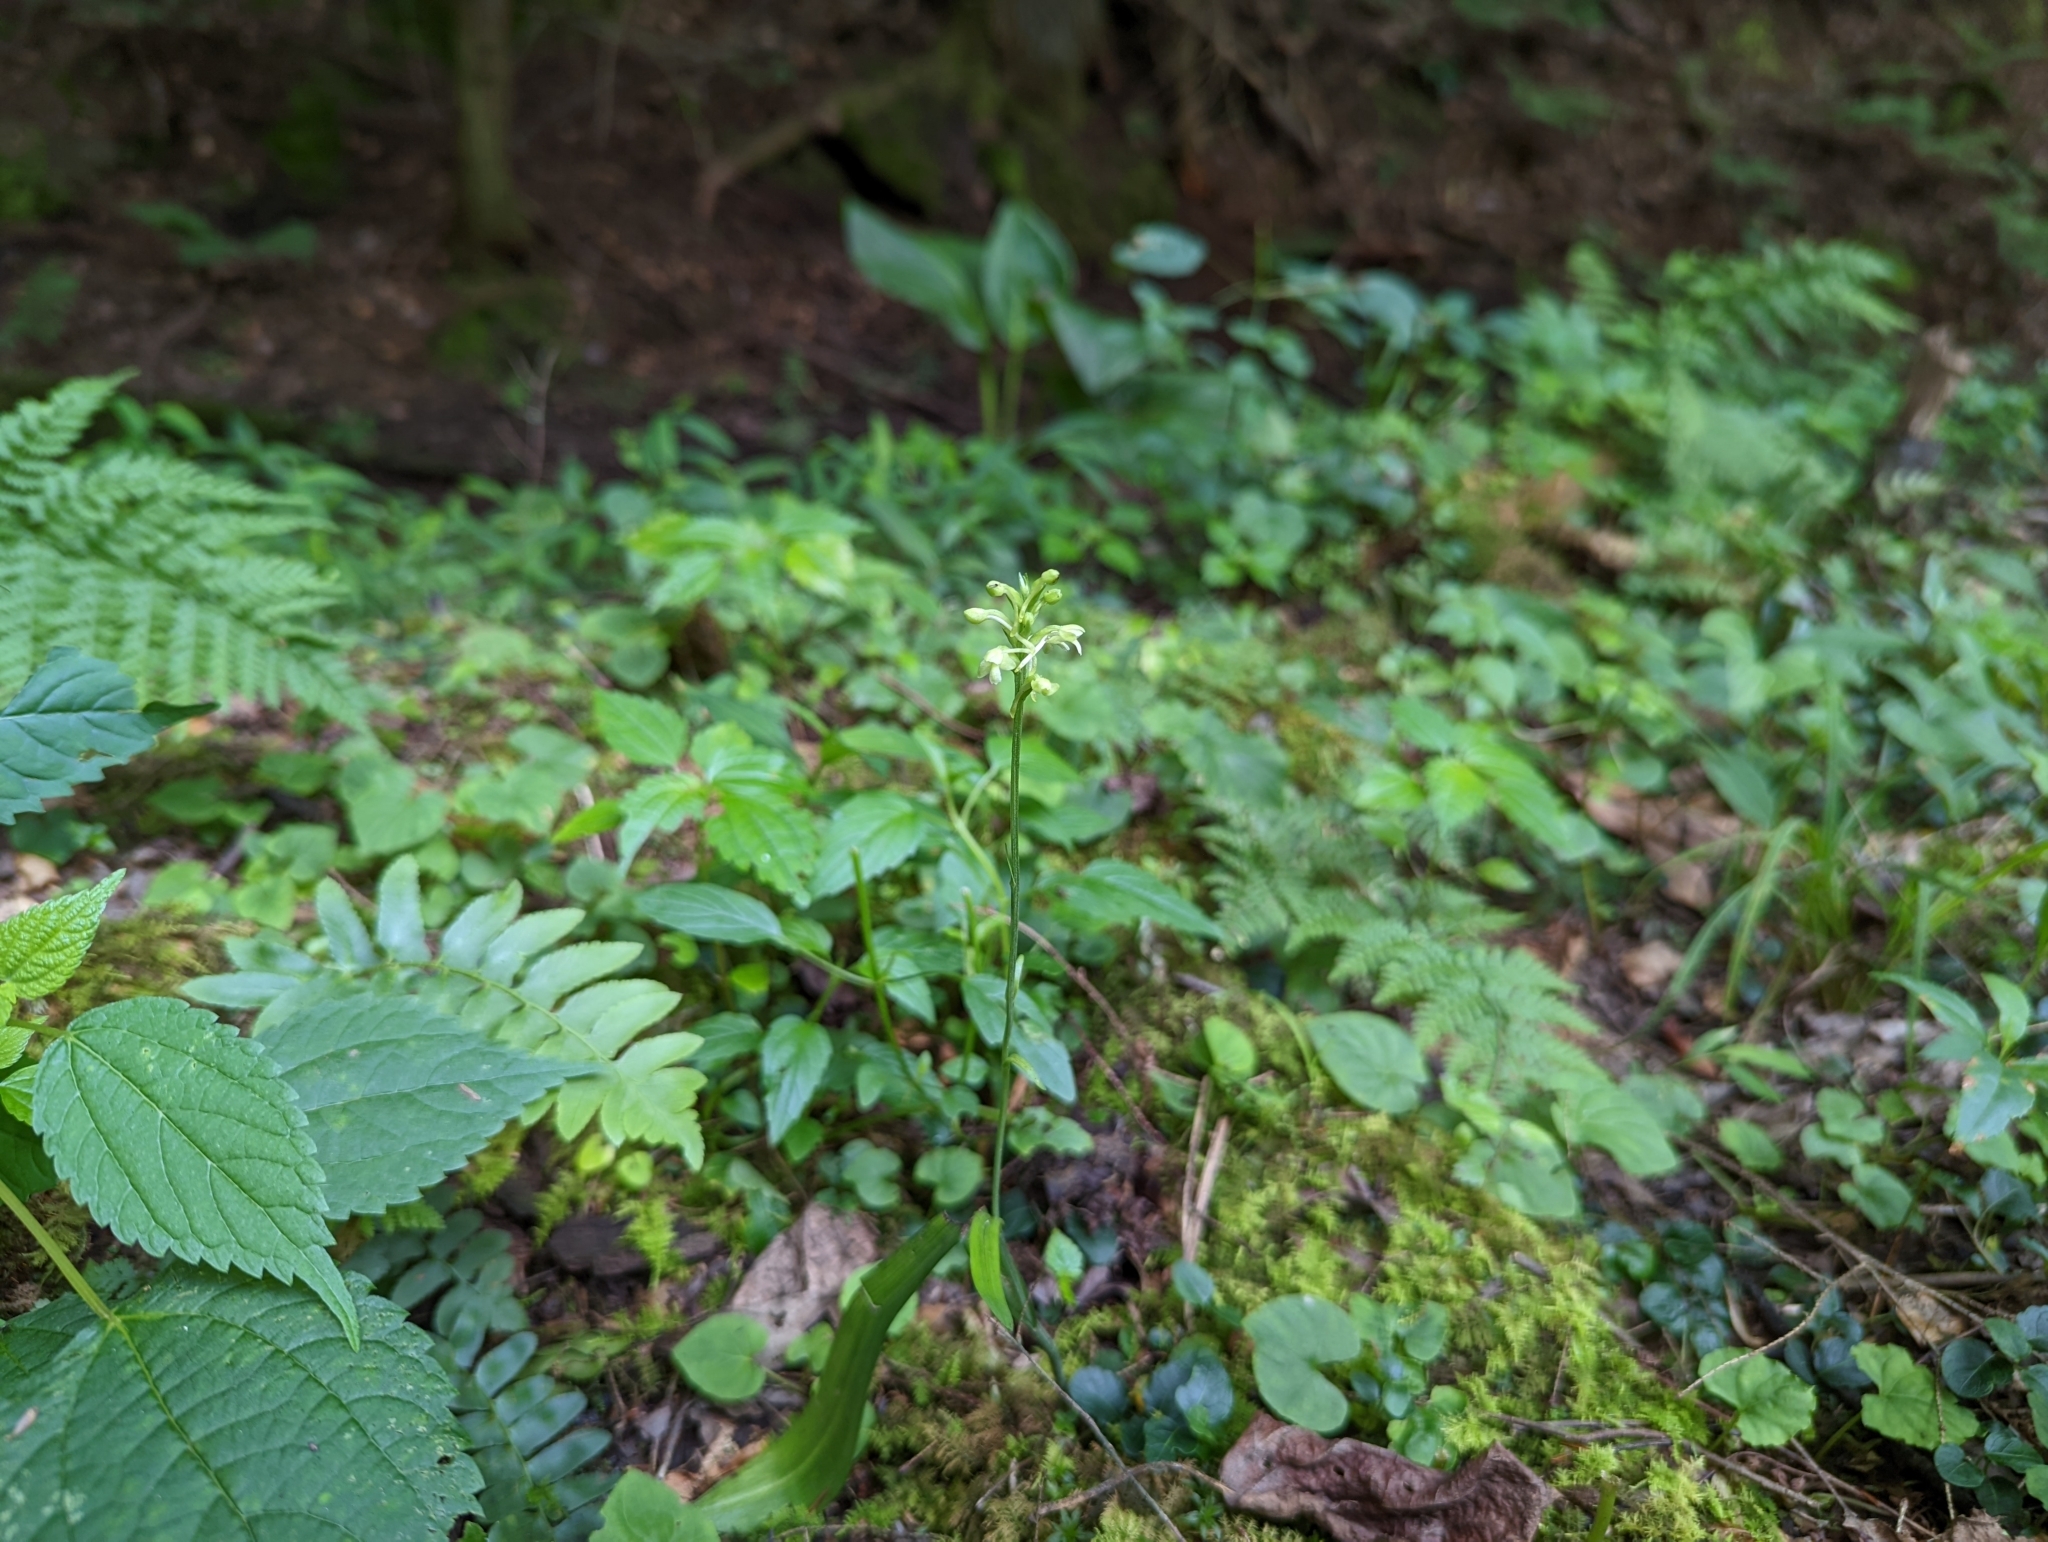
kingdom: Plantae
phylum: Tracheophyta
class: Liliopsida
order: Asparagales
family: Orchidaceae
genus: Platanthera
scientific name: Platanthera clavellata
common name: Club-spur orchid
